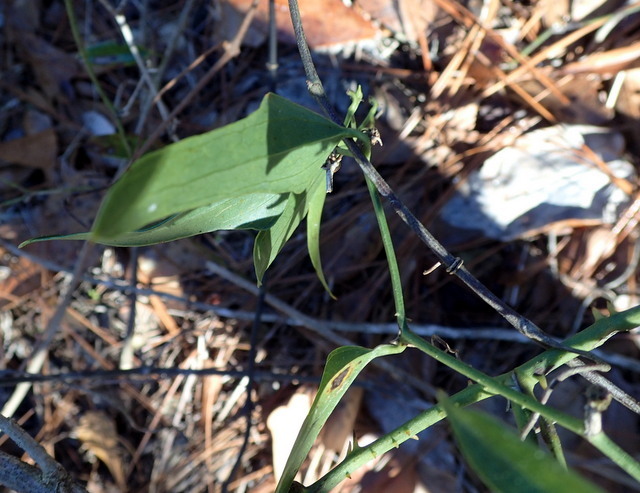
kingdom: Plantae
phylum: Tracheophyta
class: Liliopsida
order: Liliales
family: Smilacaceae
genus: Smilax
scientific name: Smilax auriculata
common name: Wild bamboo
